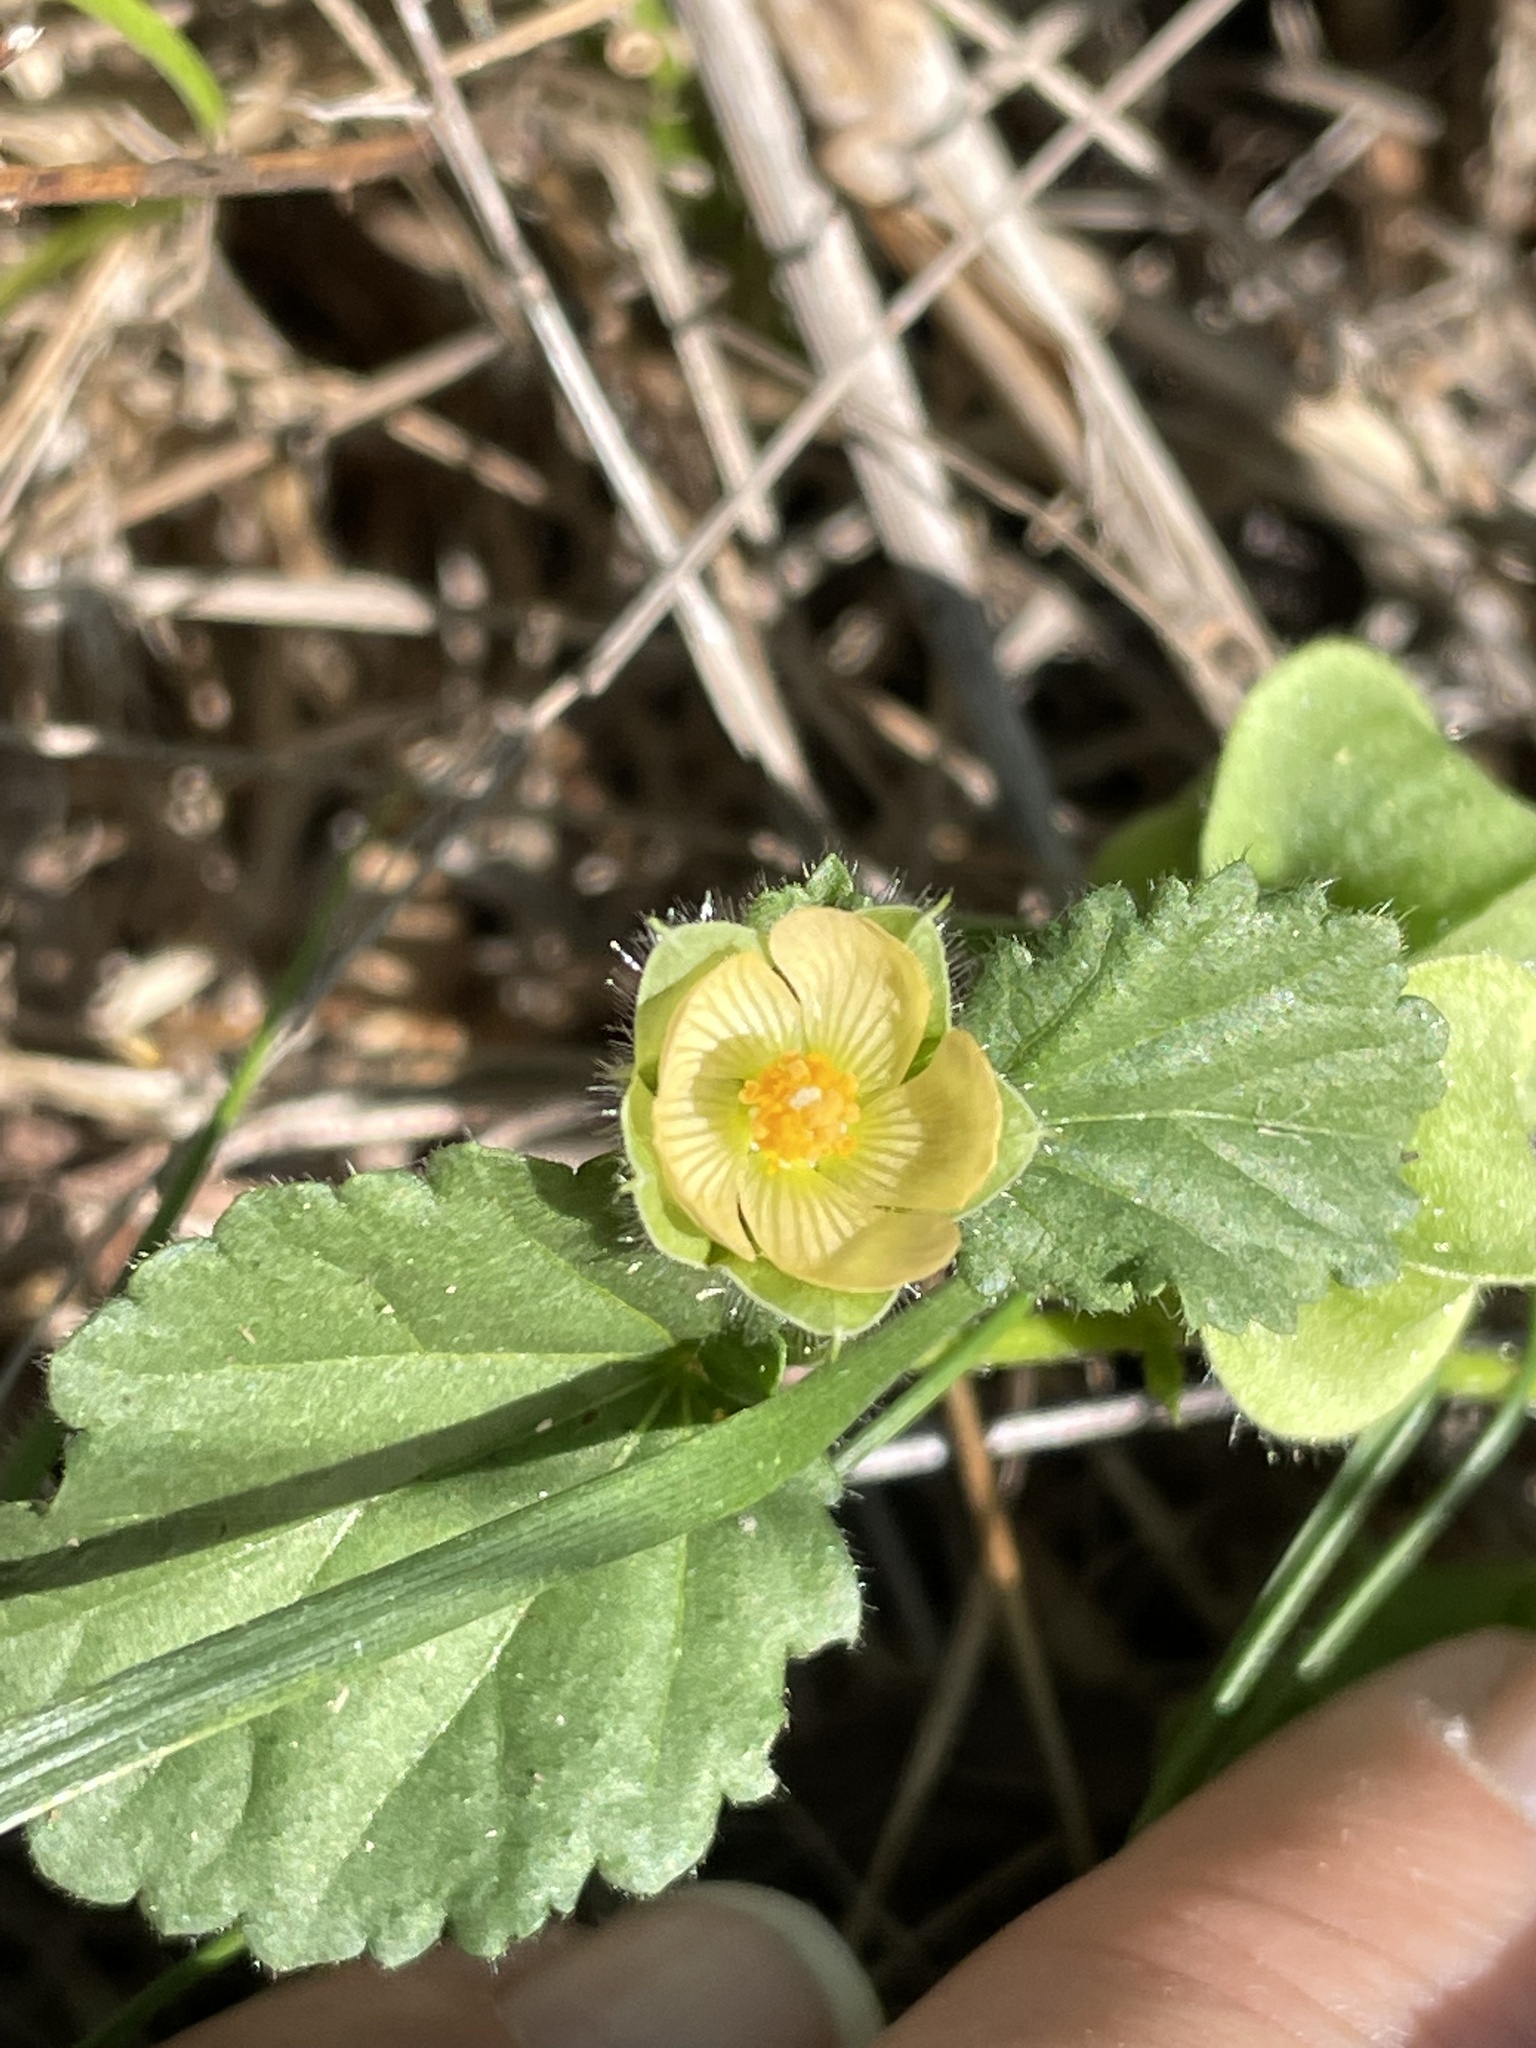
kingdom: Plantae
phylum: Tracheophyta
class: Magnoliopsida
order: Malvales
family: Malvaceae
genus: Rhynchosida
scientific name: Rhynchosida physocalyx
